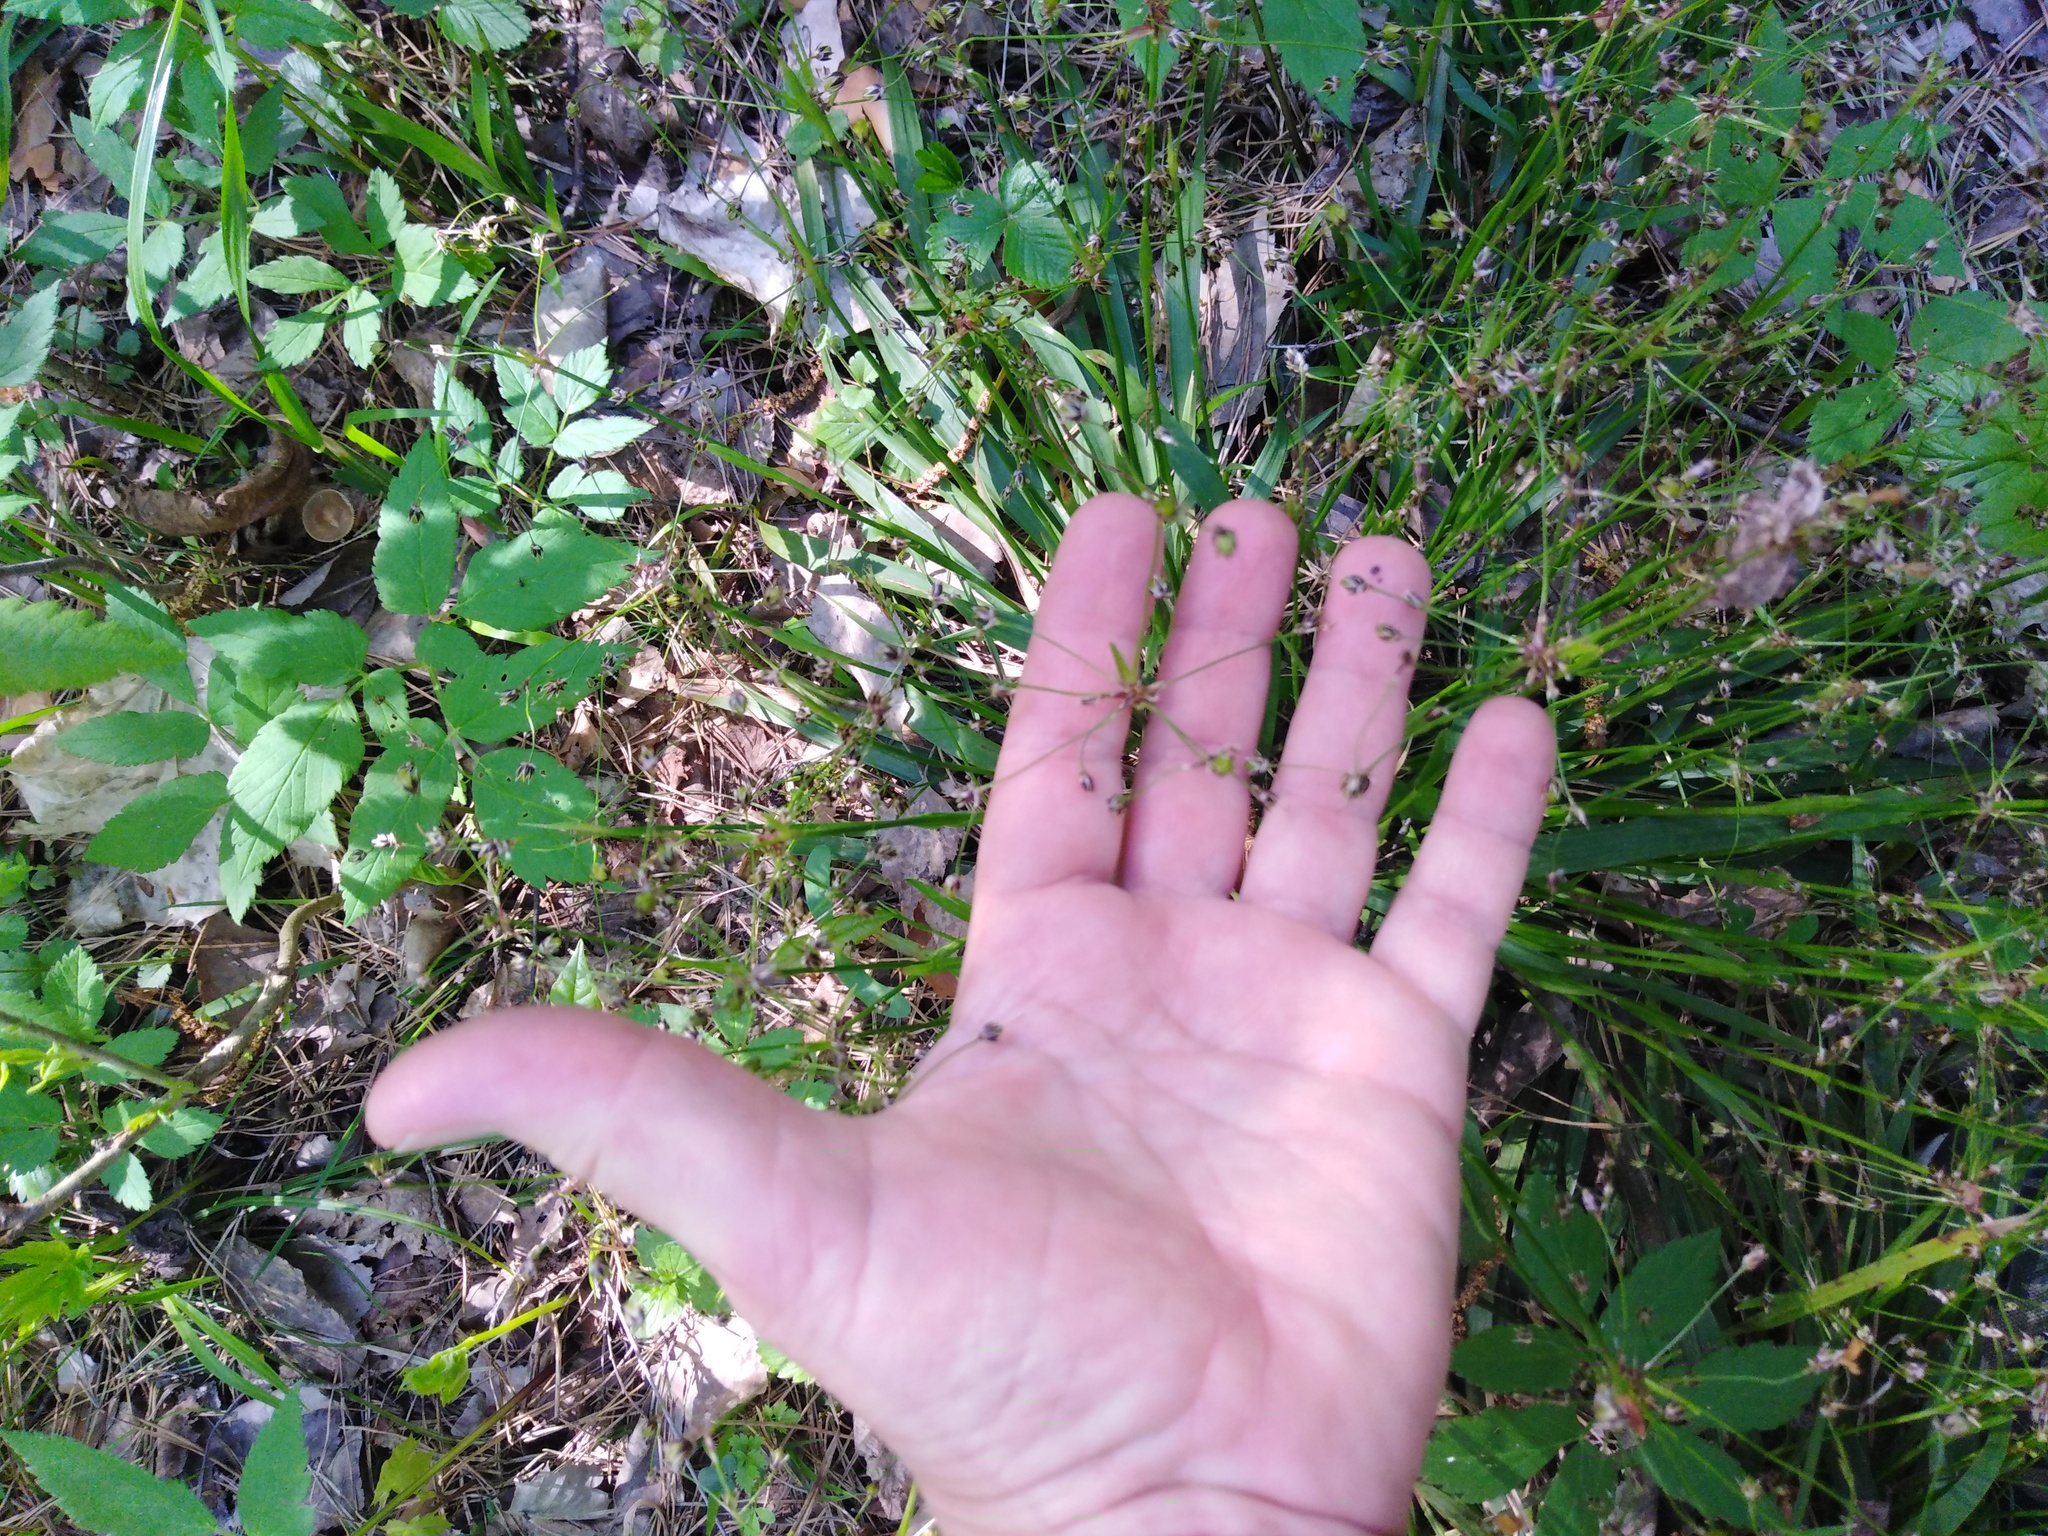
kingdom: Plantae
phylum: Tracheophyta
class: Liliopsida
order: Poales
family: Juncaceae
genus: Luzula
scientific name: Luzula pilosa
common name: Hairy wood-rush
